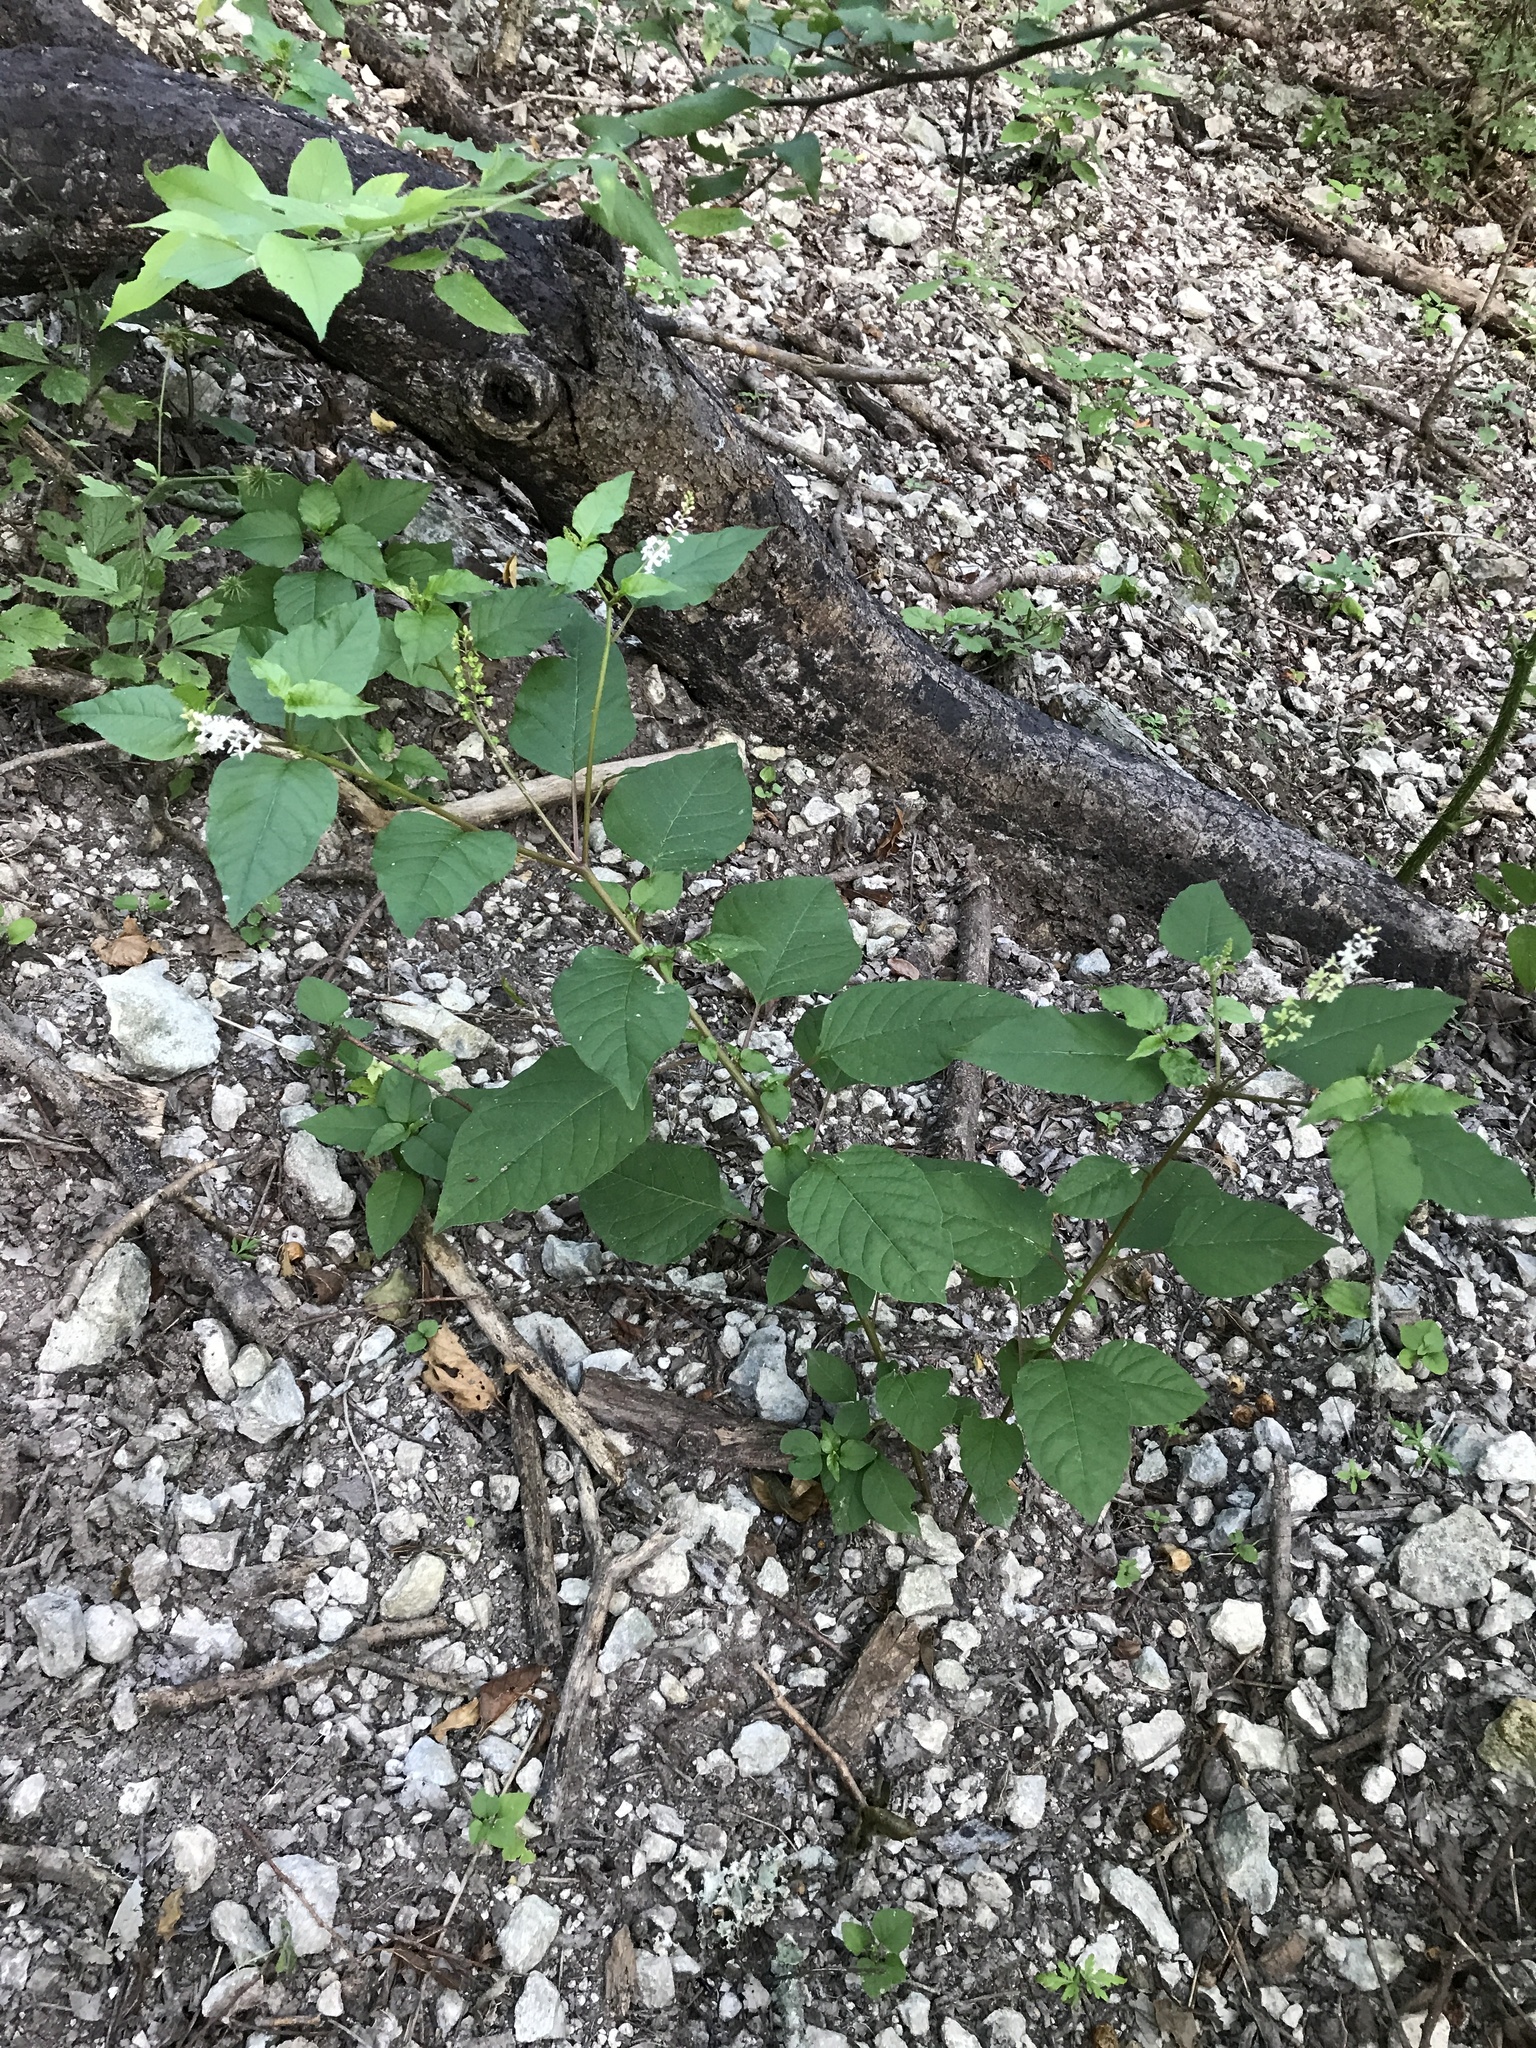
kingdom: Plantae
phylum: Tracheophyta
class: Magnoliopsida
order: Caryophyllales
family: Phytolaccaceae
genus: Rivina
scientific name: Rivina humilis
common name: Rougeplant
